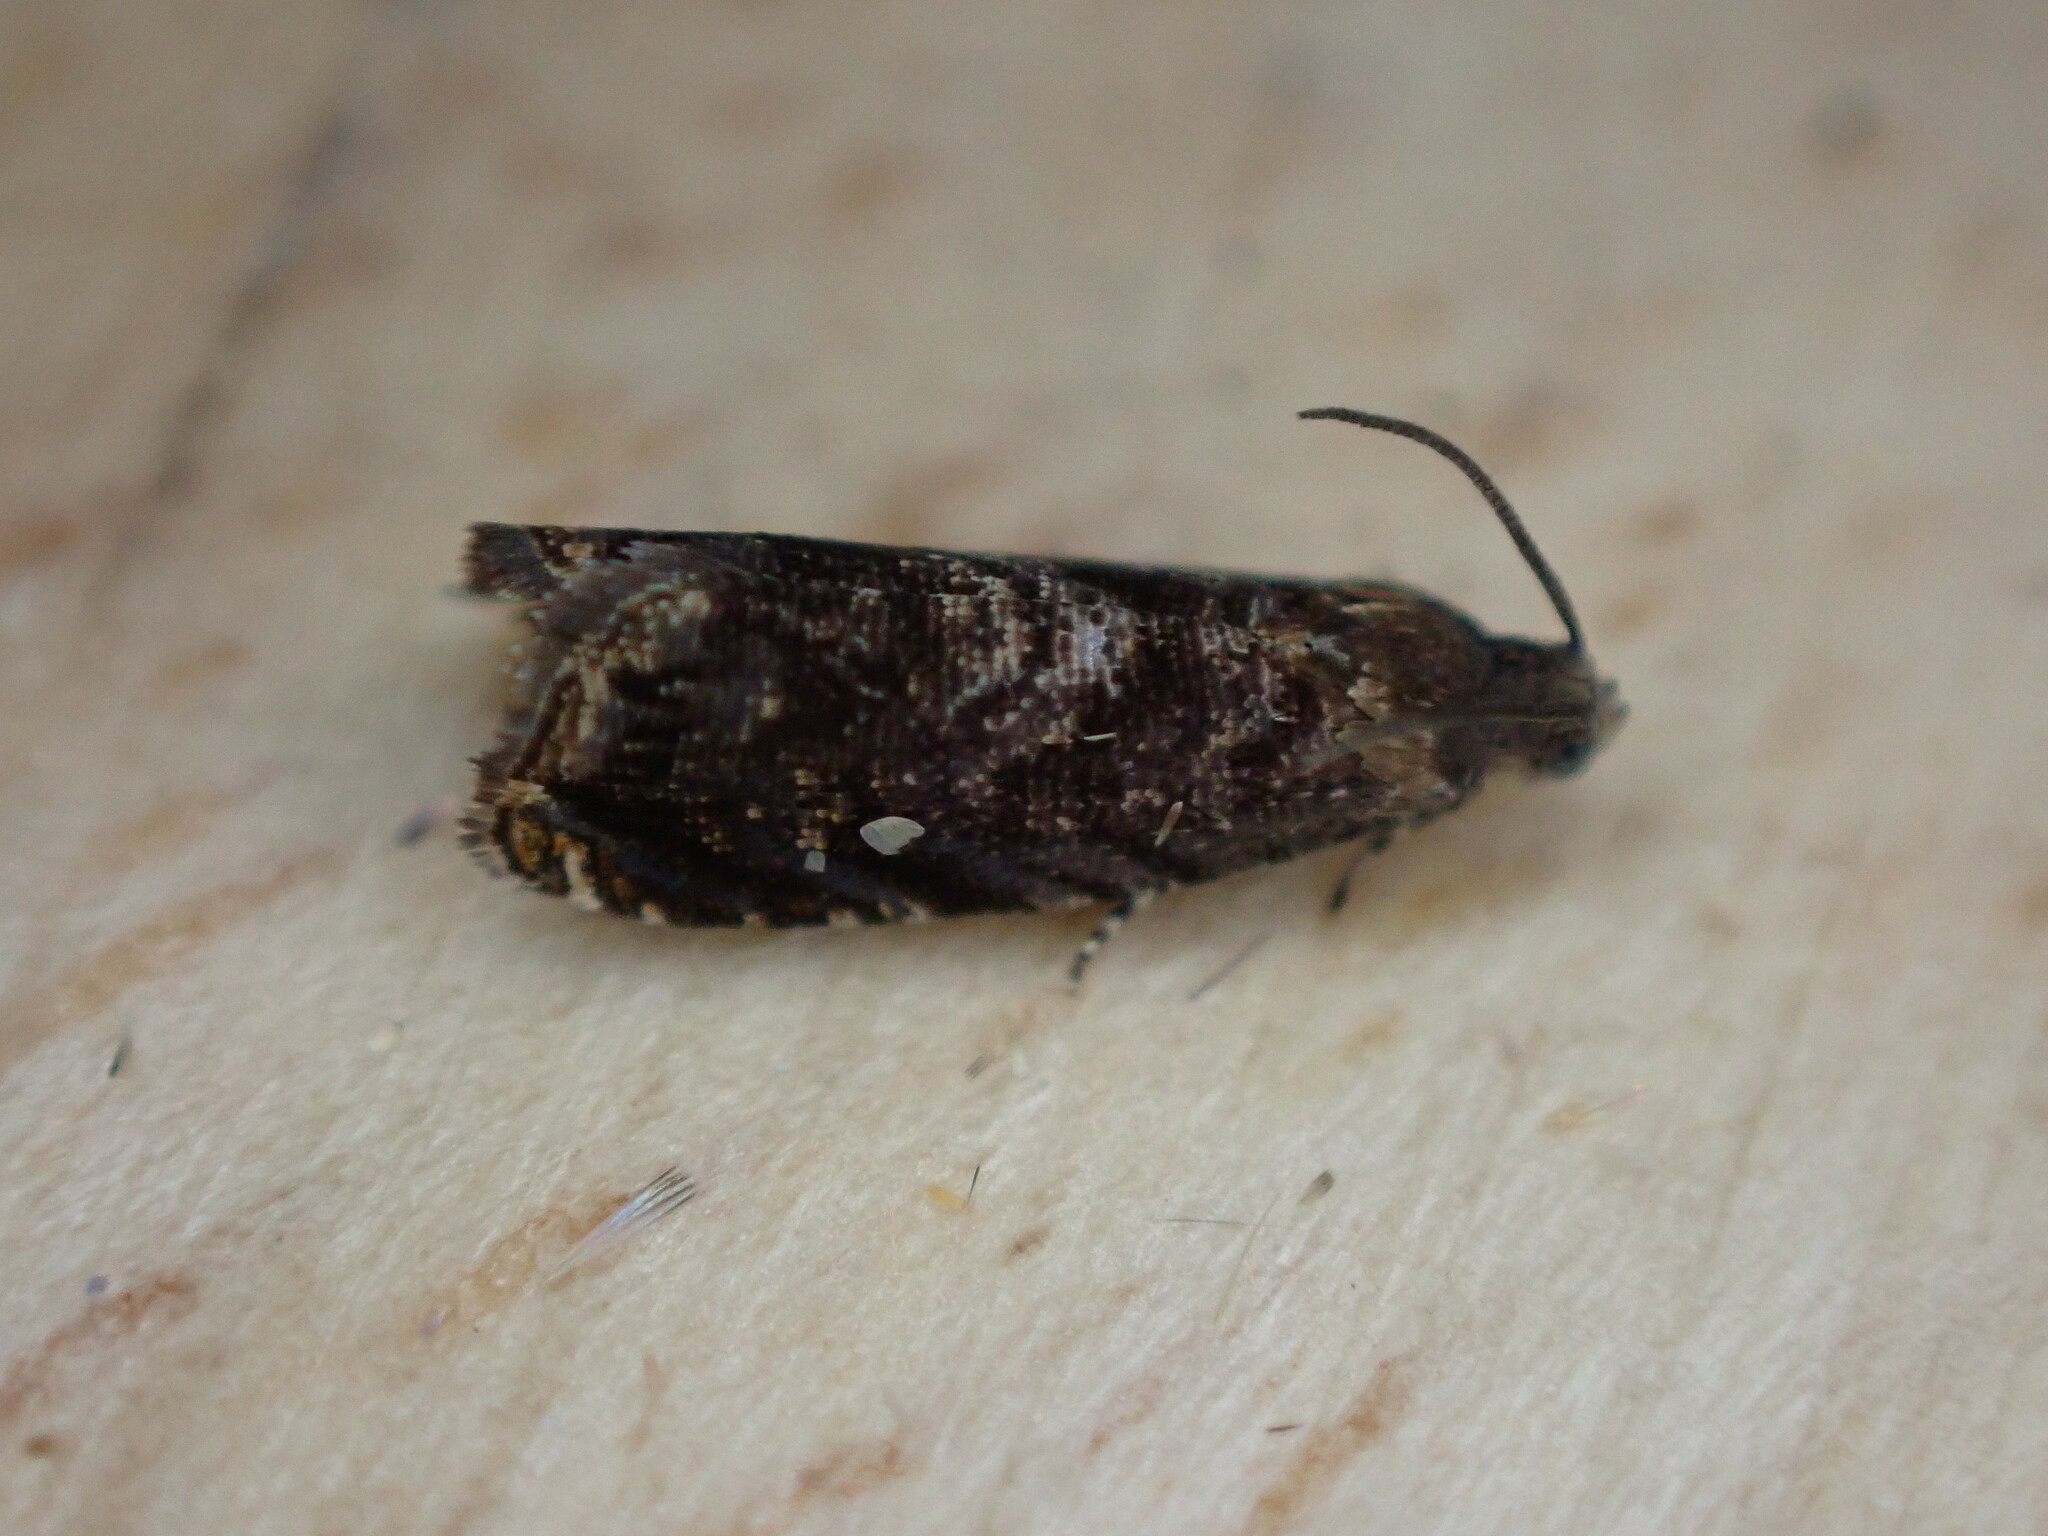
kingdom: Animalia
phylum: Arthropoda
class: Insecta
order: Lepidoptera
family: Noctuidae
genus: Aspila
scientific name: Aspila
